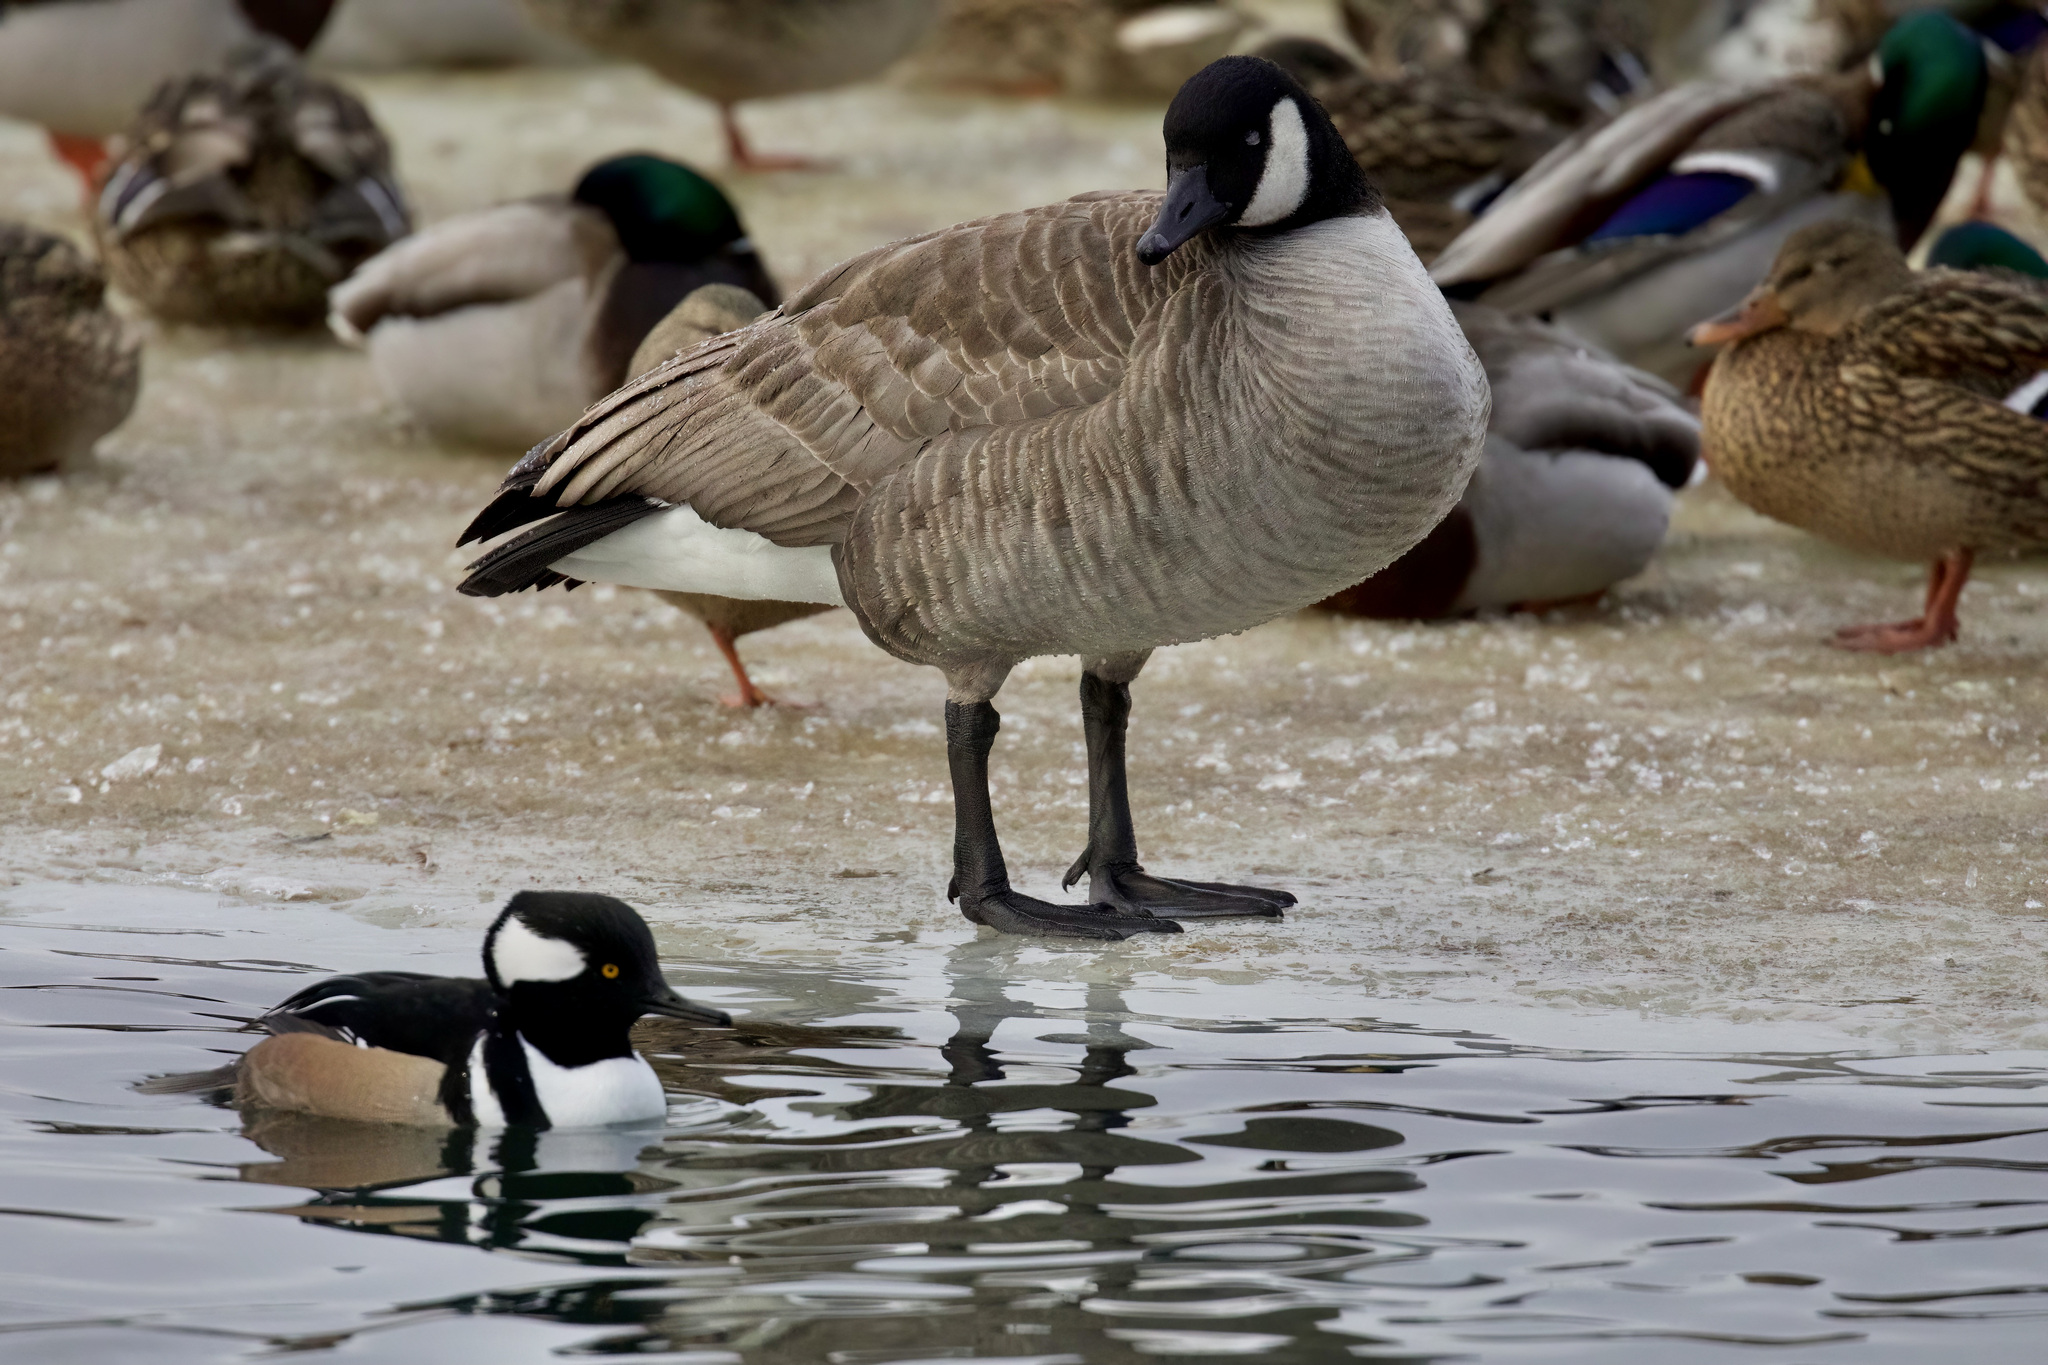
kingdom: Animalia
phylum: Chordata
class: Aves
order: Anseriformes
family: Anatidae
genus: Branta
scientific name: Branta hutchinsii
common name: Cackling goose
